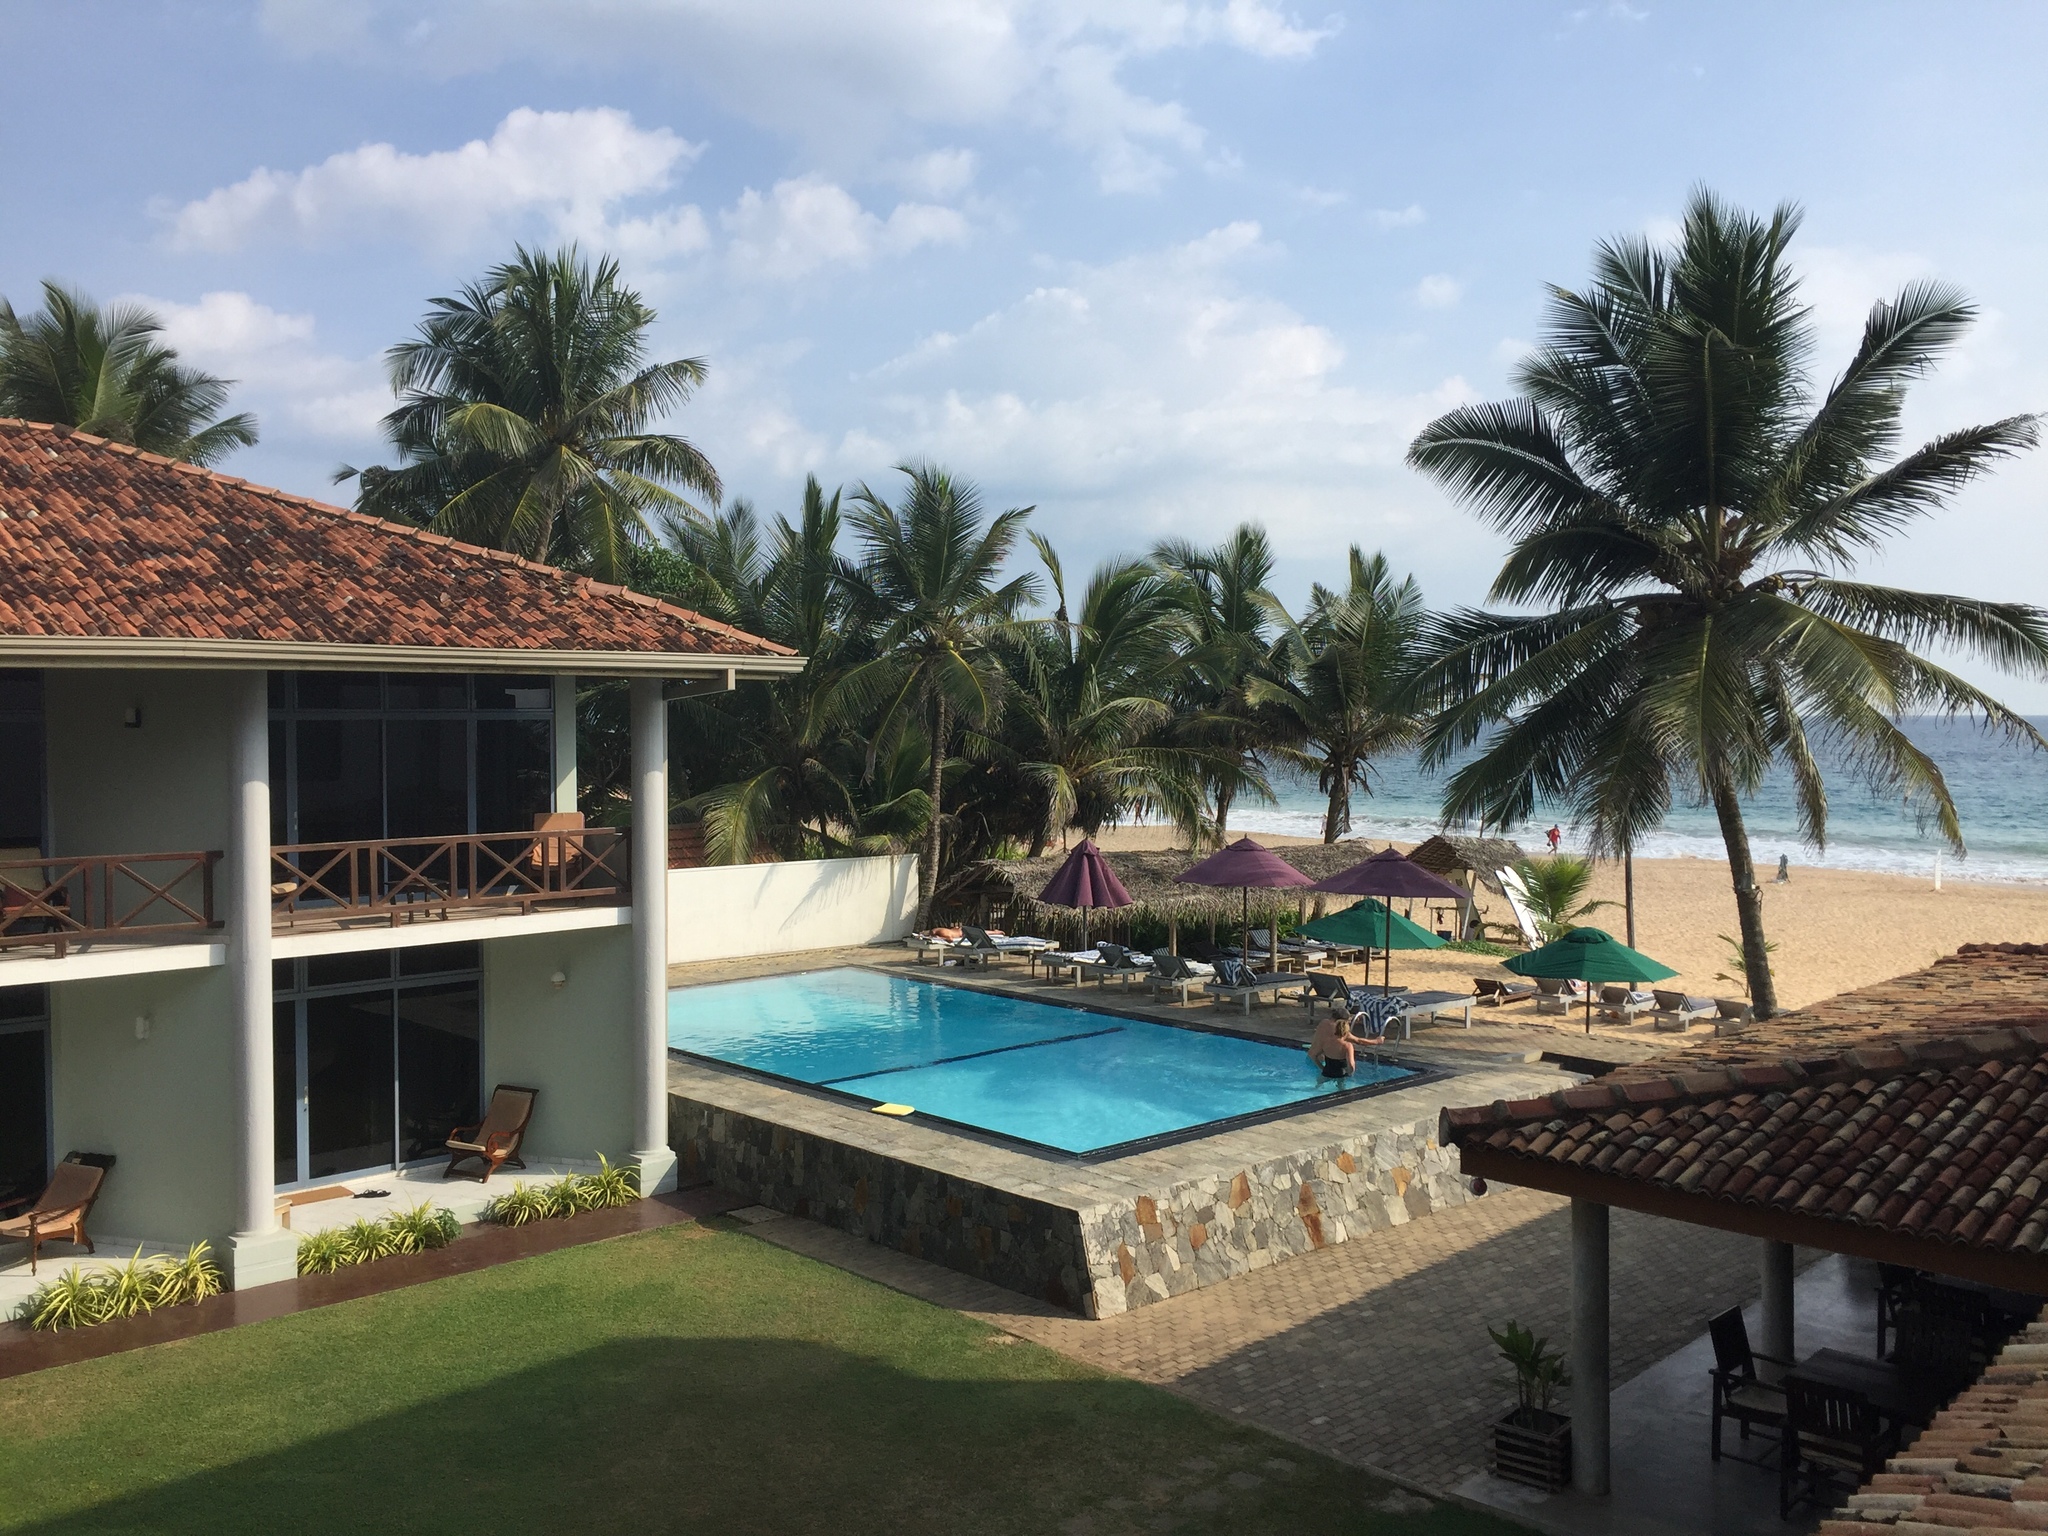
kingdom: Plantae
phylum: Tracheophyta
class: Liliopsida
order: Arecales
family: Arecaceae
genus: Cocos
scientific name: Cocos nucifera
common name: Coconut palm
